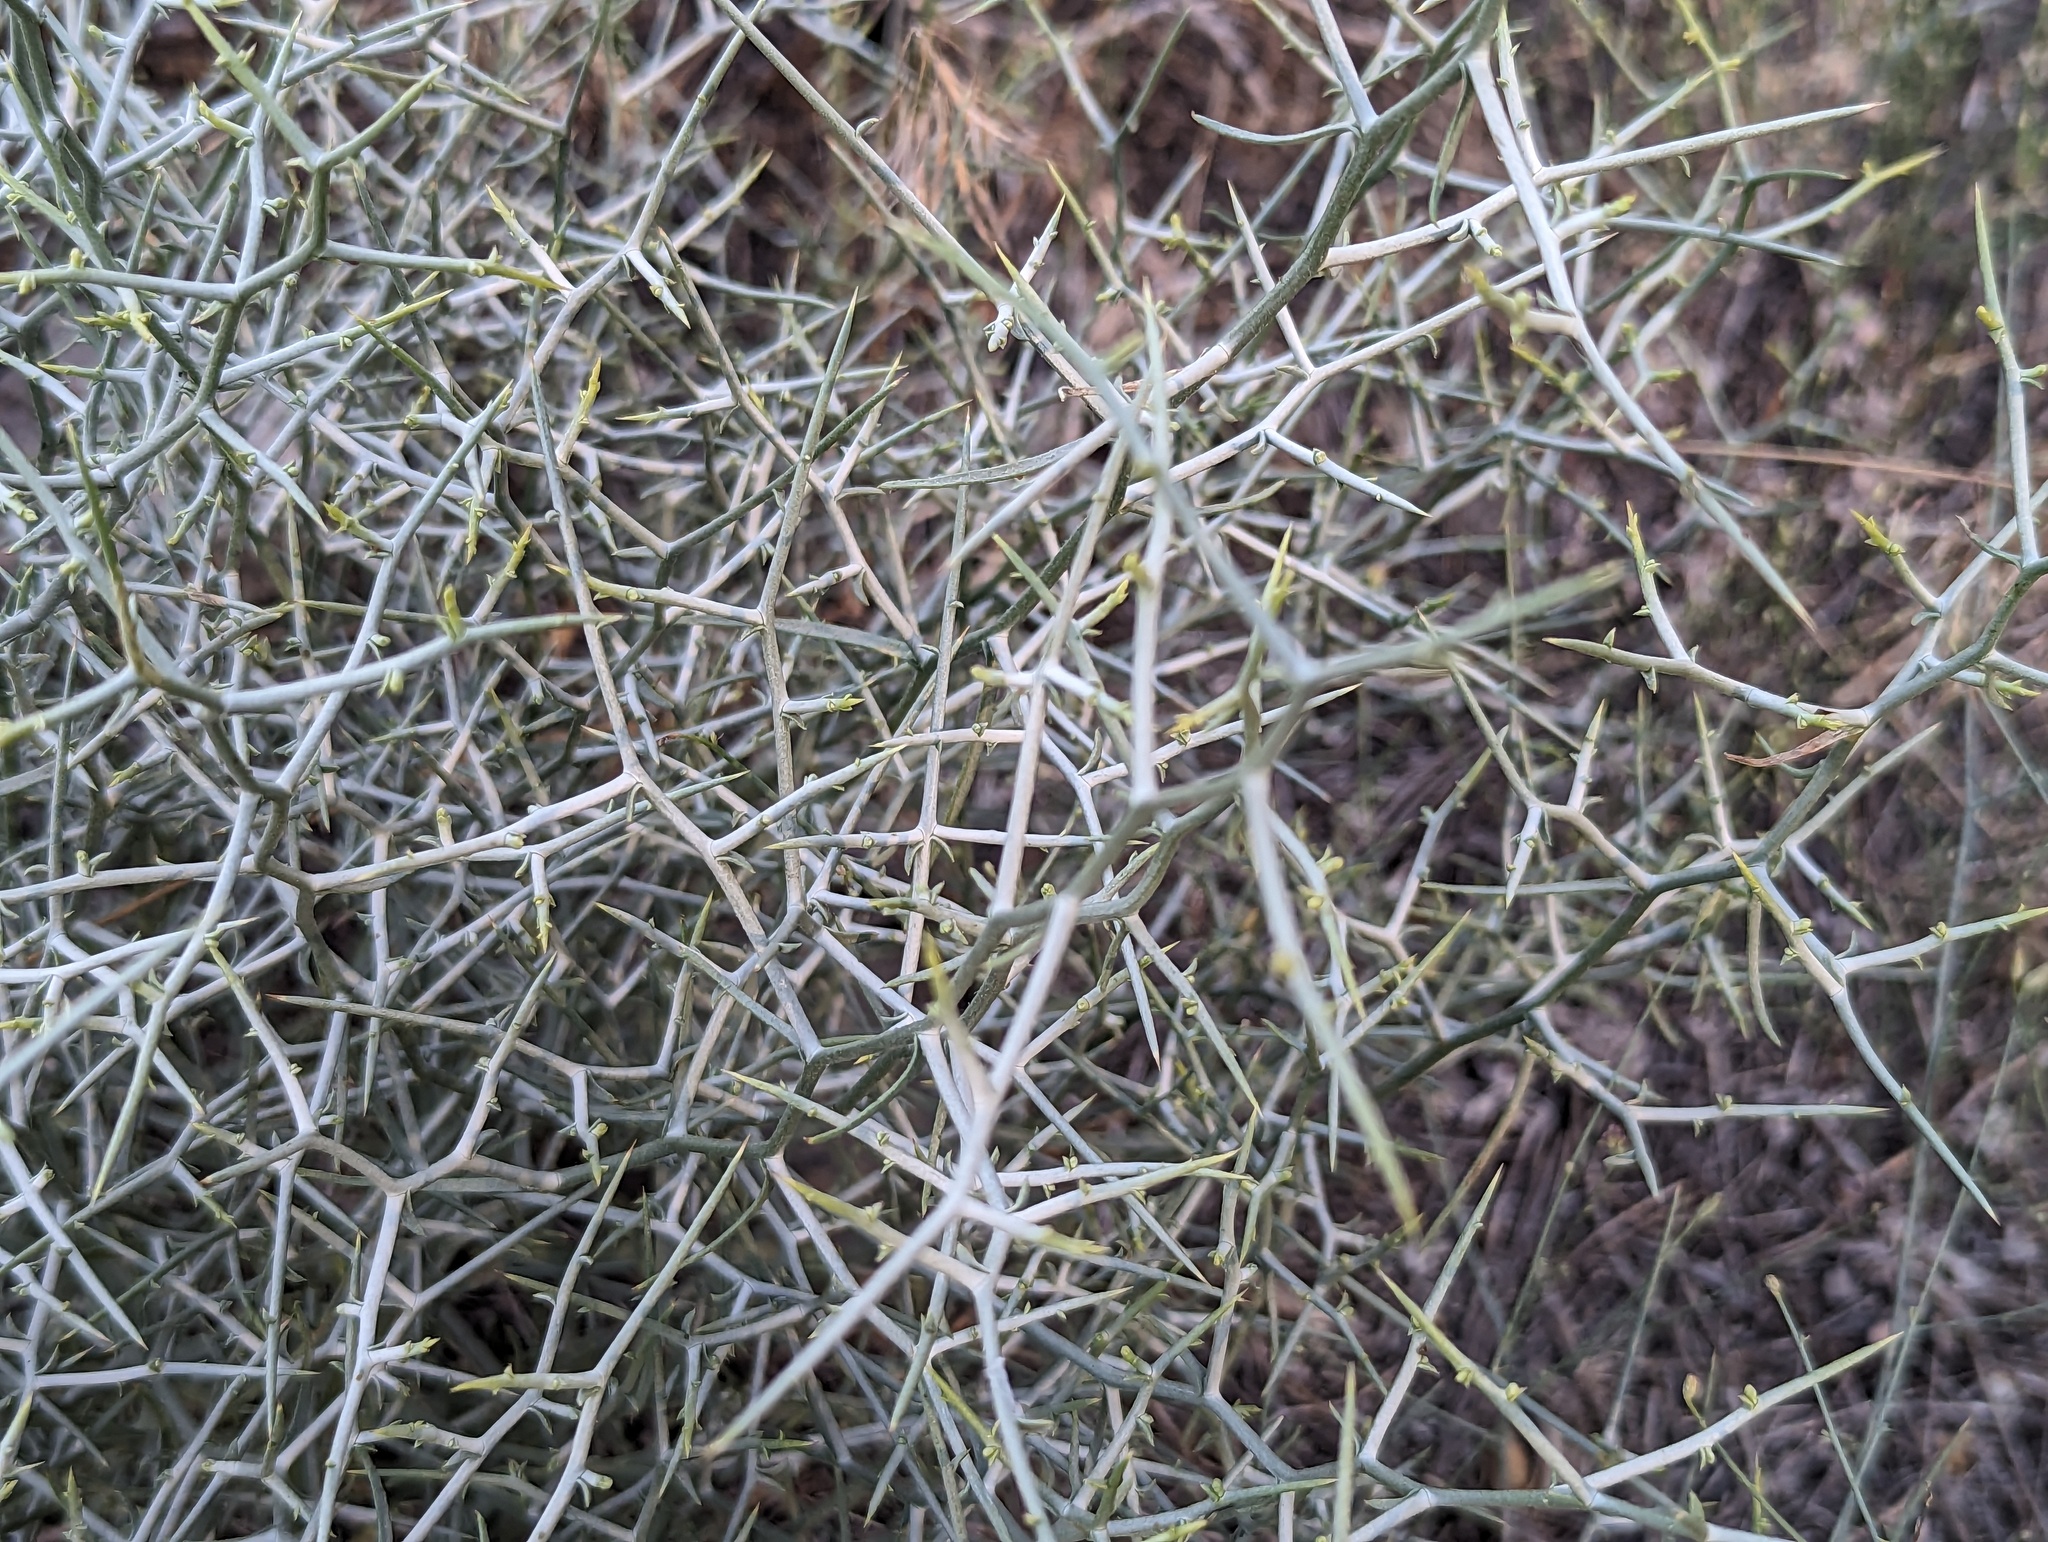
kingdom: Plantae
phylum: Tracheophyta
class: Magnoliopsida
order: Asterales
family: Asteraceae
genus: Pleiacanthus
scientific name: Pleiacanthus spinosus
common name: Thorny skeleton-weed
